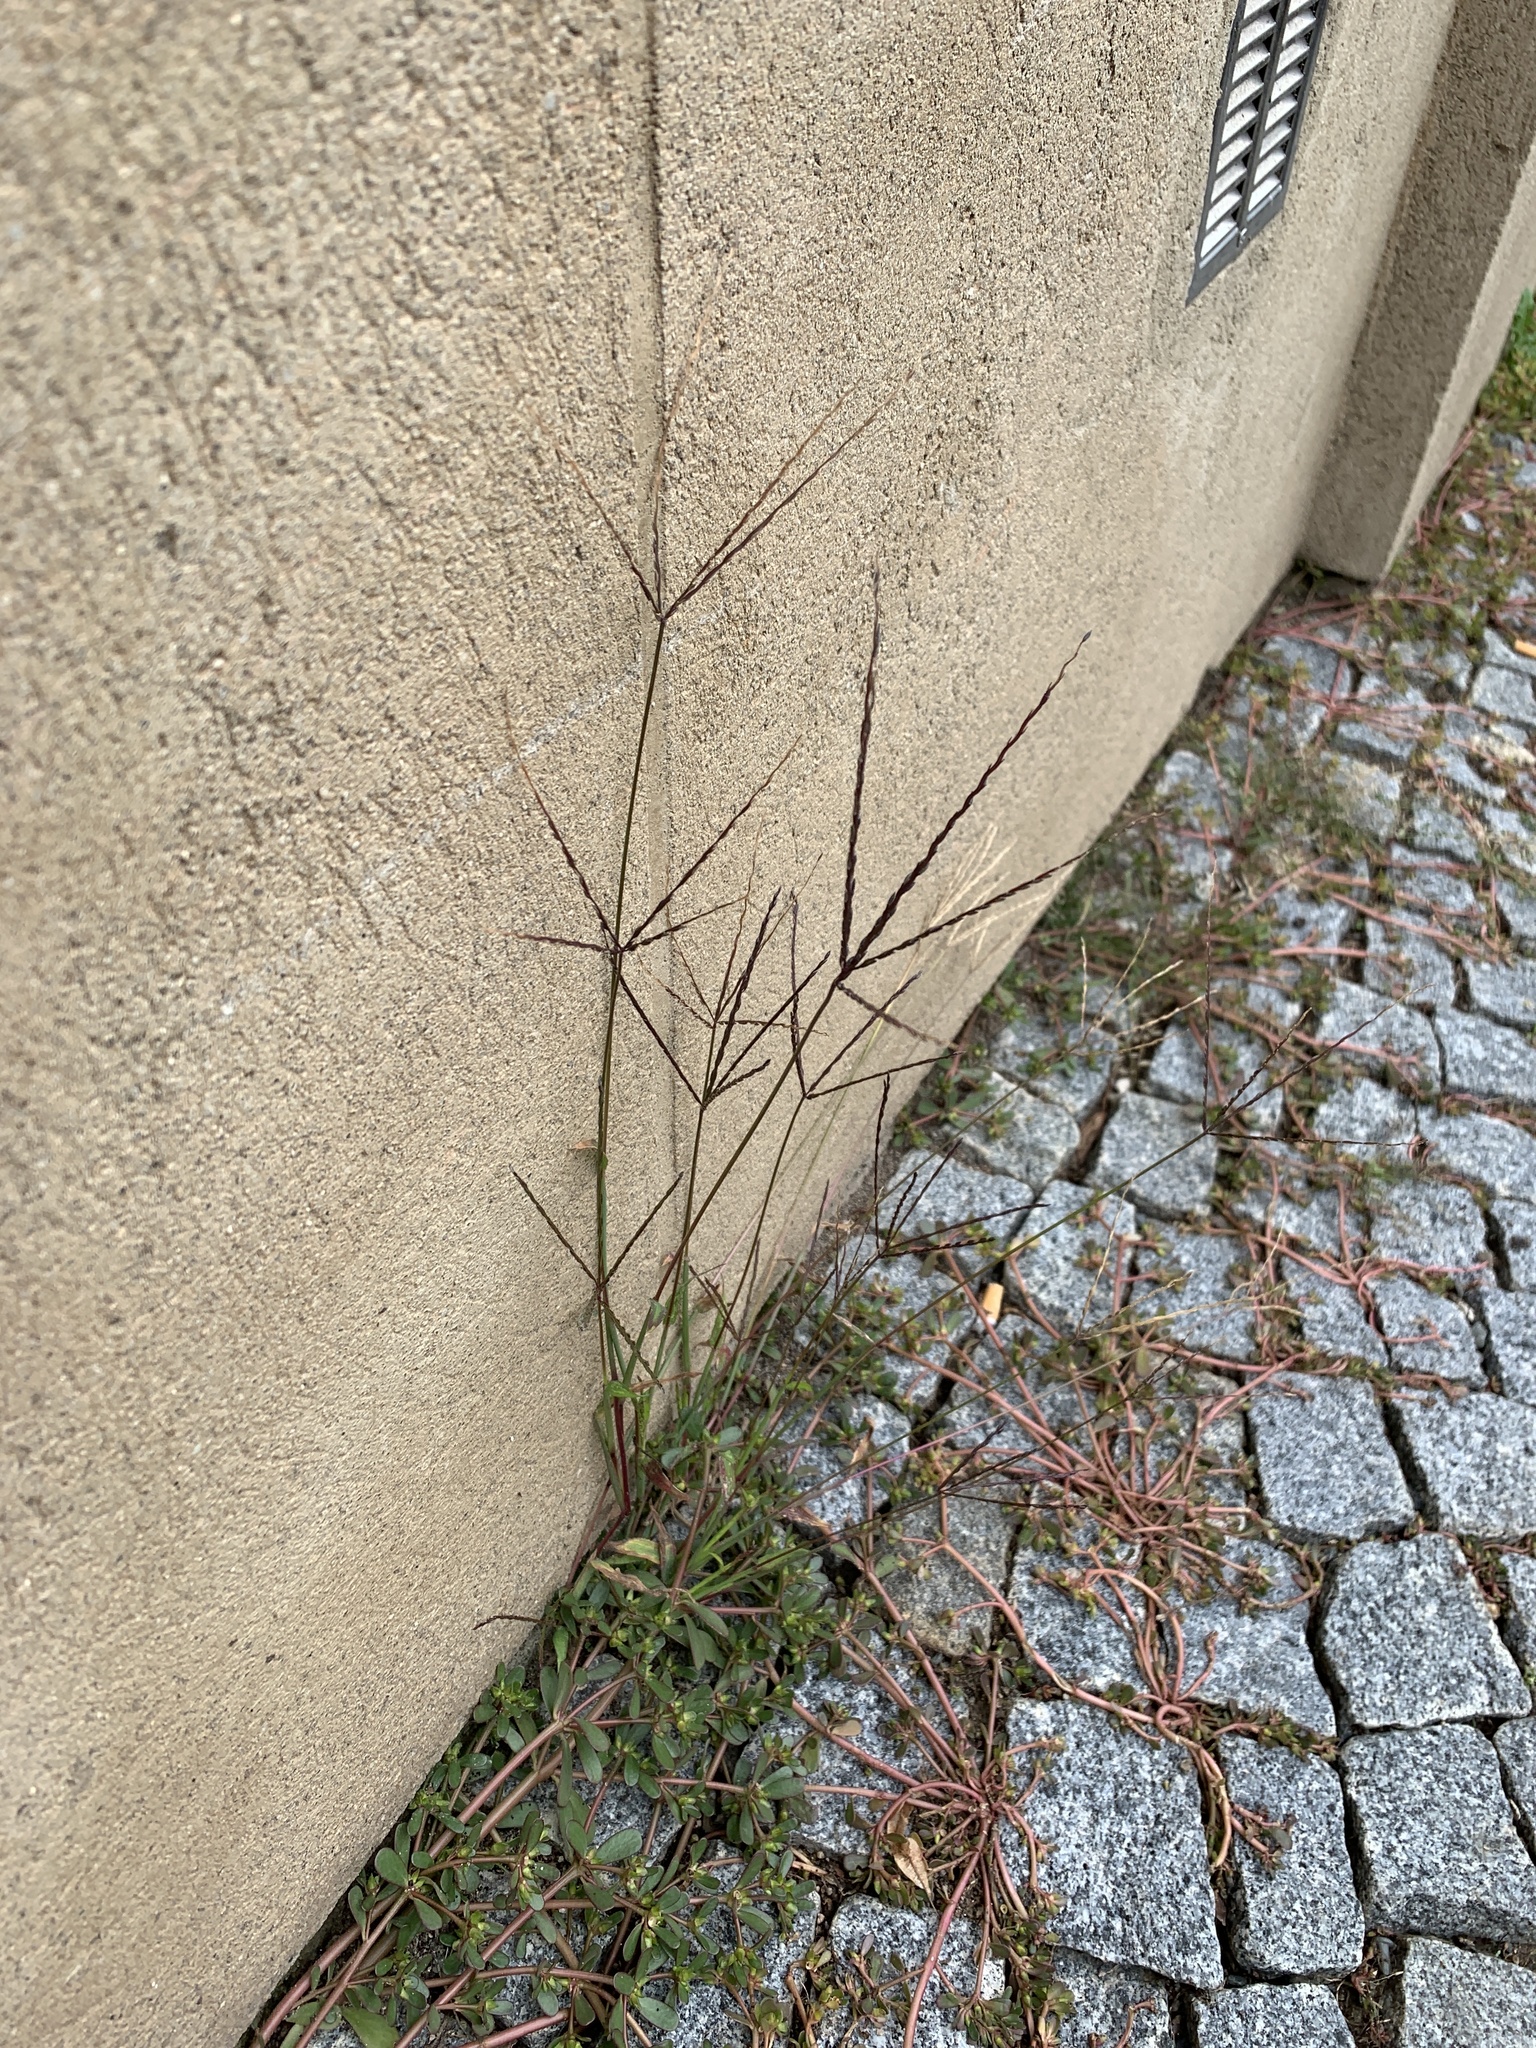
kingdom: Plantae
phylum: Tracheophyta
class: Liliopsida
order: Poales
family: Poaceae
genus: Digitaria
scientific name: Digitaria sanguinalis
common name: Hairy crabgrass
